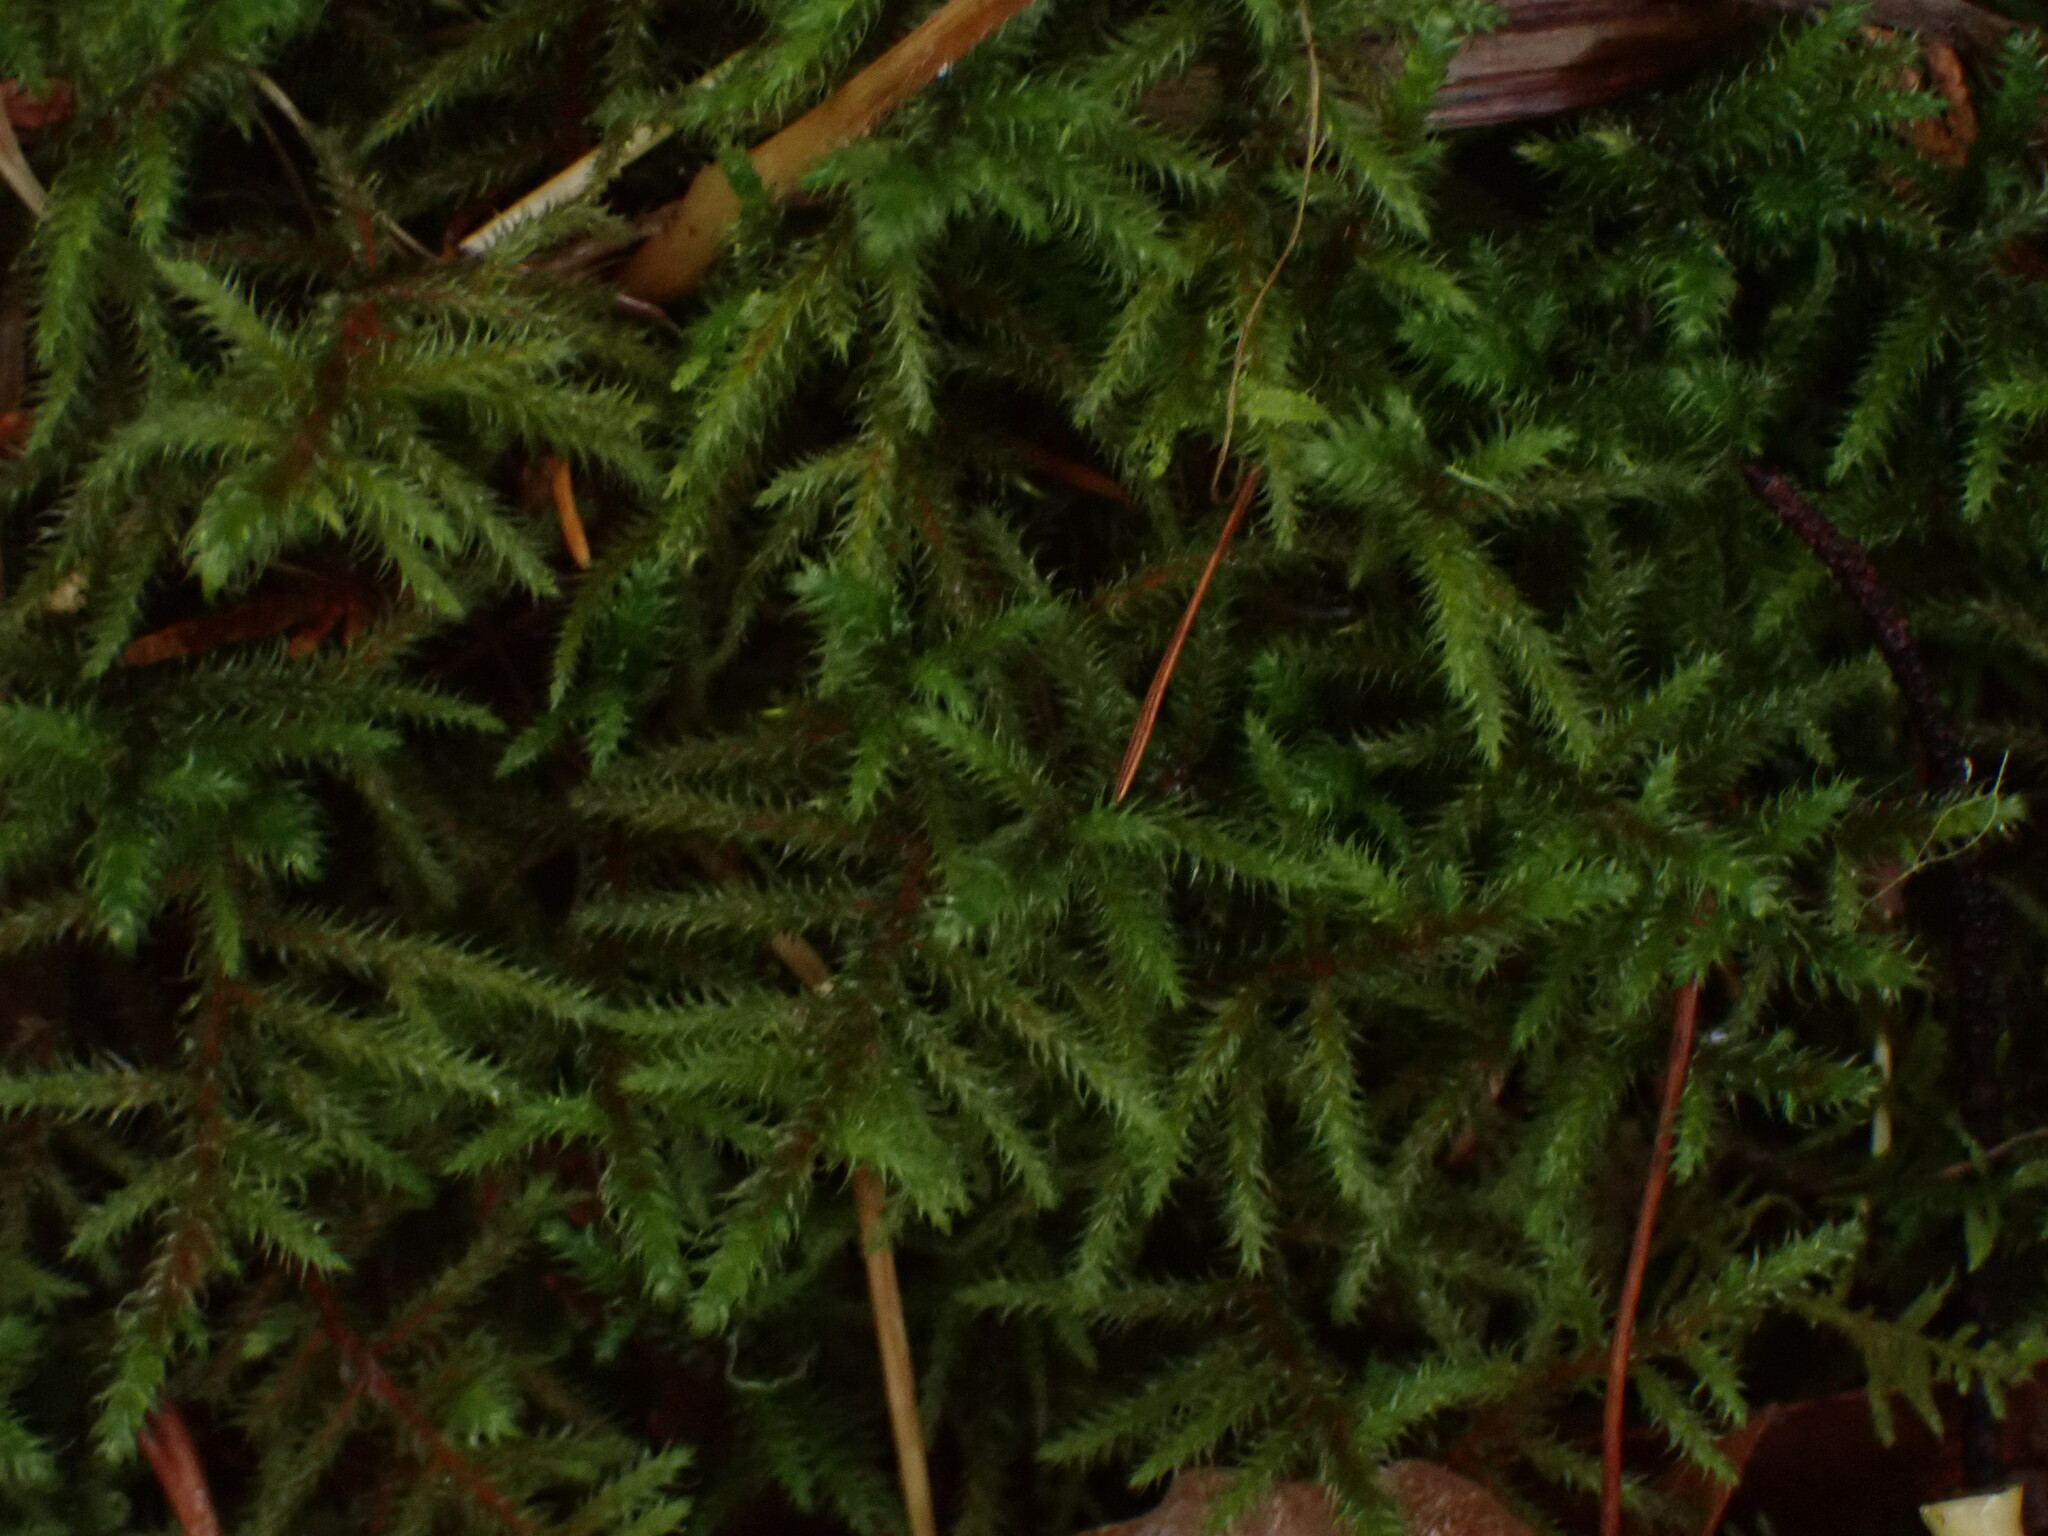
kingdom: Plantae
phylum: Bryophyta
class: Bryopsida
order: Hypnales
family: Hylocomiaceae
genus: Rhytidiadelphus
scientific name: Rhytidiadelphus loreus
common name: Lanky moss
